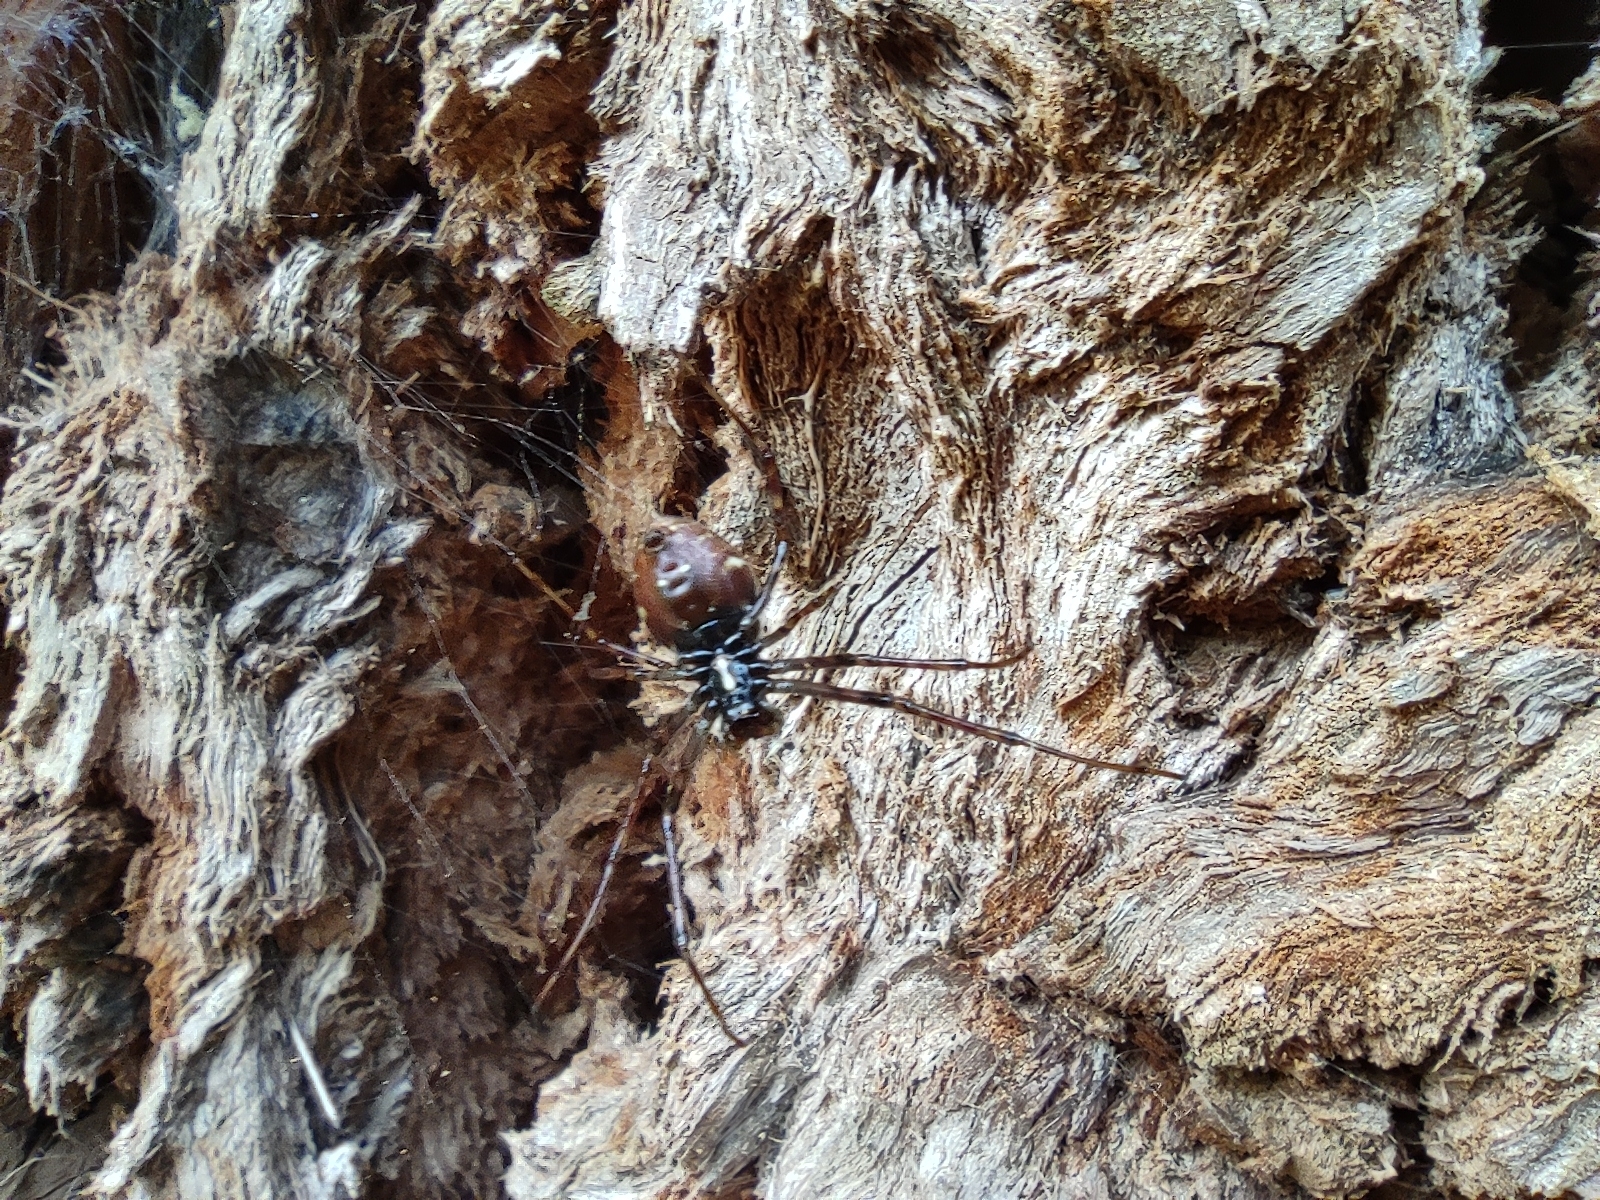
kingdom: Animalia
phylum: Arthropoda
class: Arachnida
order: Araneae
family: Araneidae
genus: Nephilingis
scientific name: Nephilingis borbonica
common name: Reunion hermit spider
